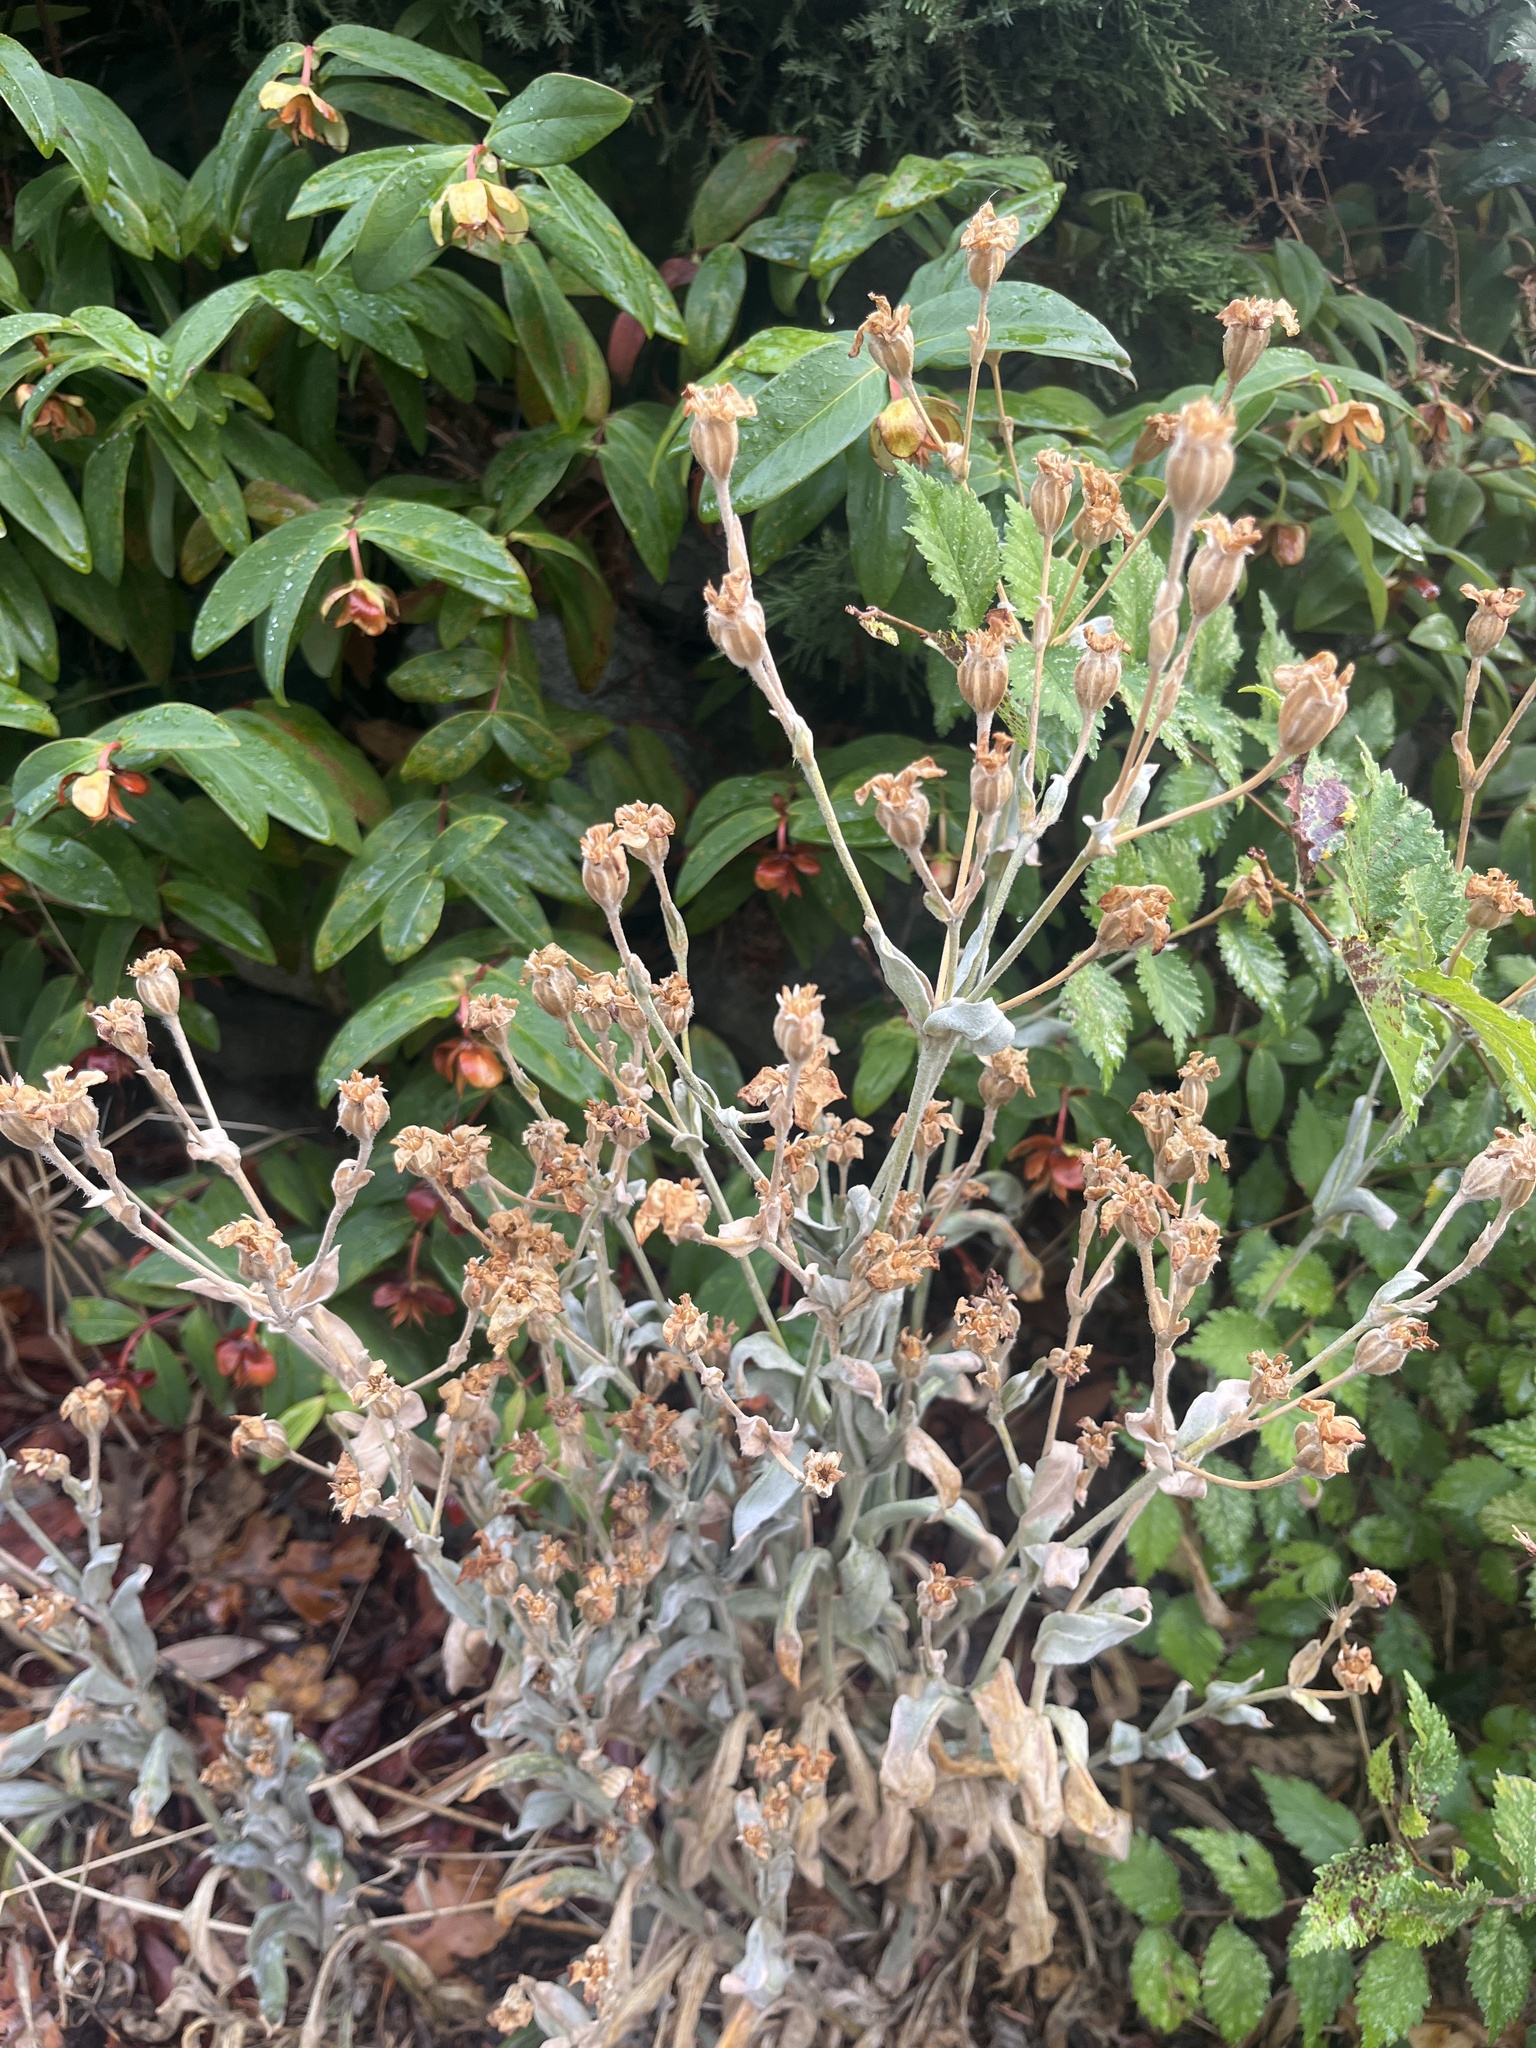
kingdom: Plantae
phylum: Tracheophyta
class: Magnoliopsida
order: Caryophyllales
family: Caryophyllaceae
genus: Silene
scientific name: Silene coronaria
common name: Rose campion
